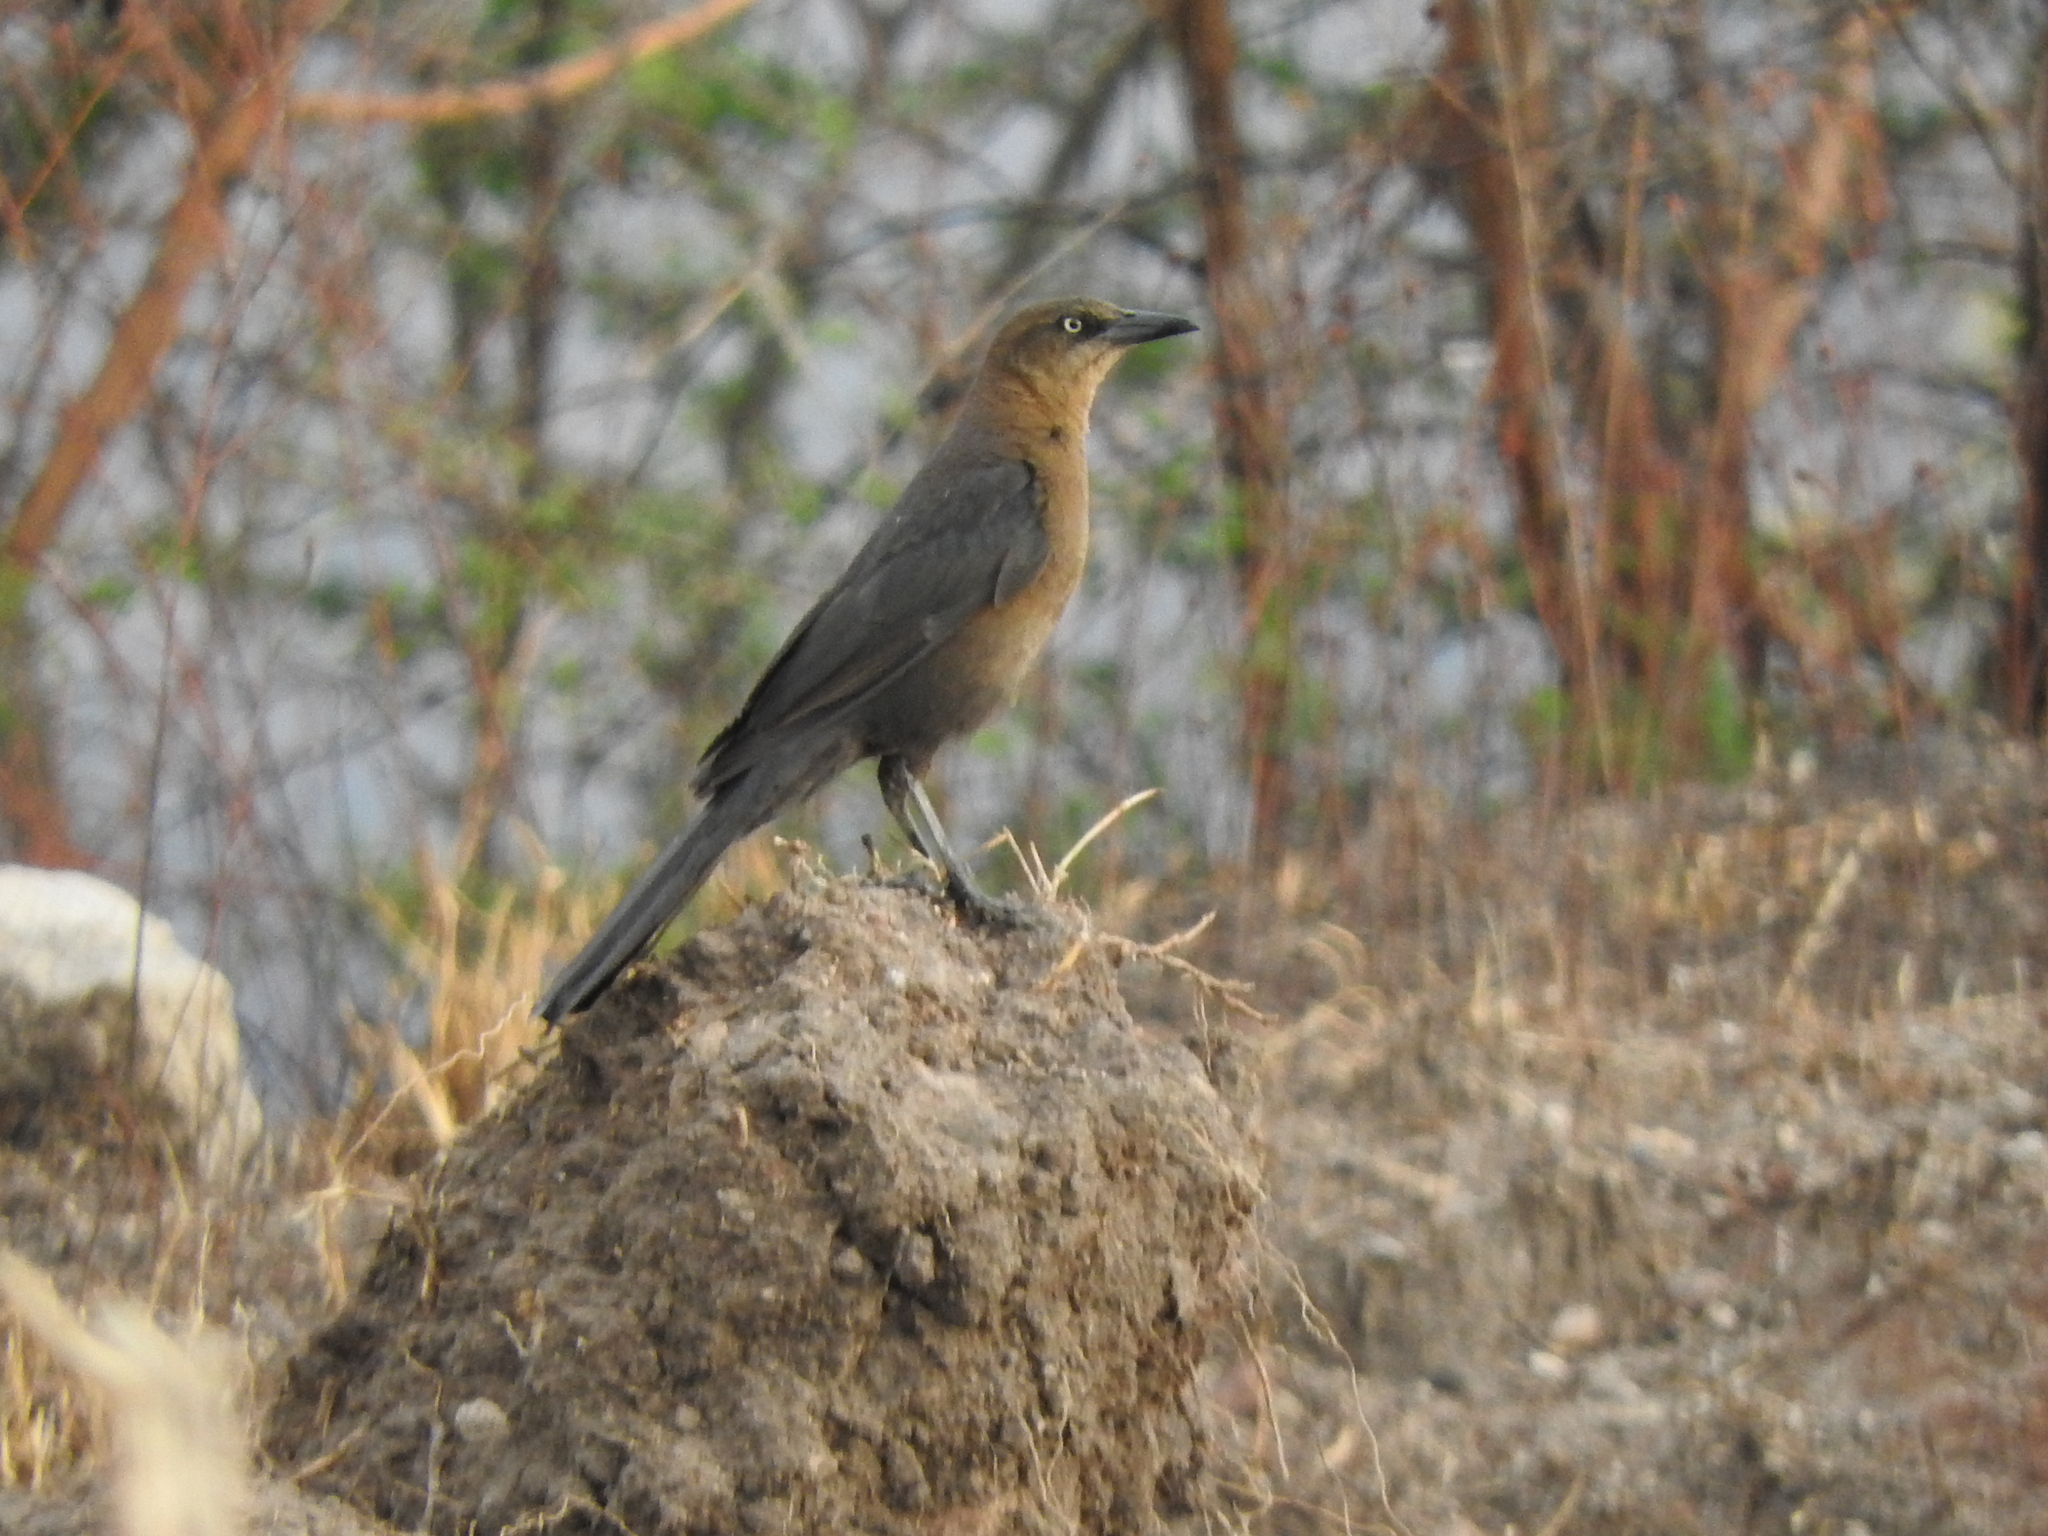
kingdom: Animalia
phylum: Chordata
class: Aves
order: Passeriformes
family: Icteridae
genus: Quiscalus
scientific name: Quiscalus mexicanus
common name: Great-tailed grackle
